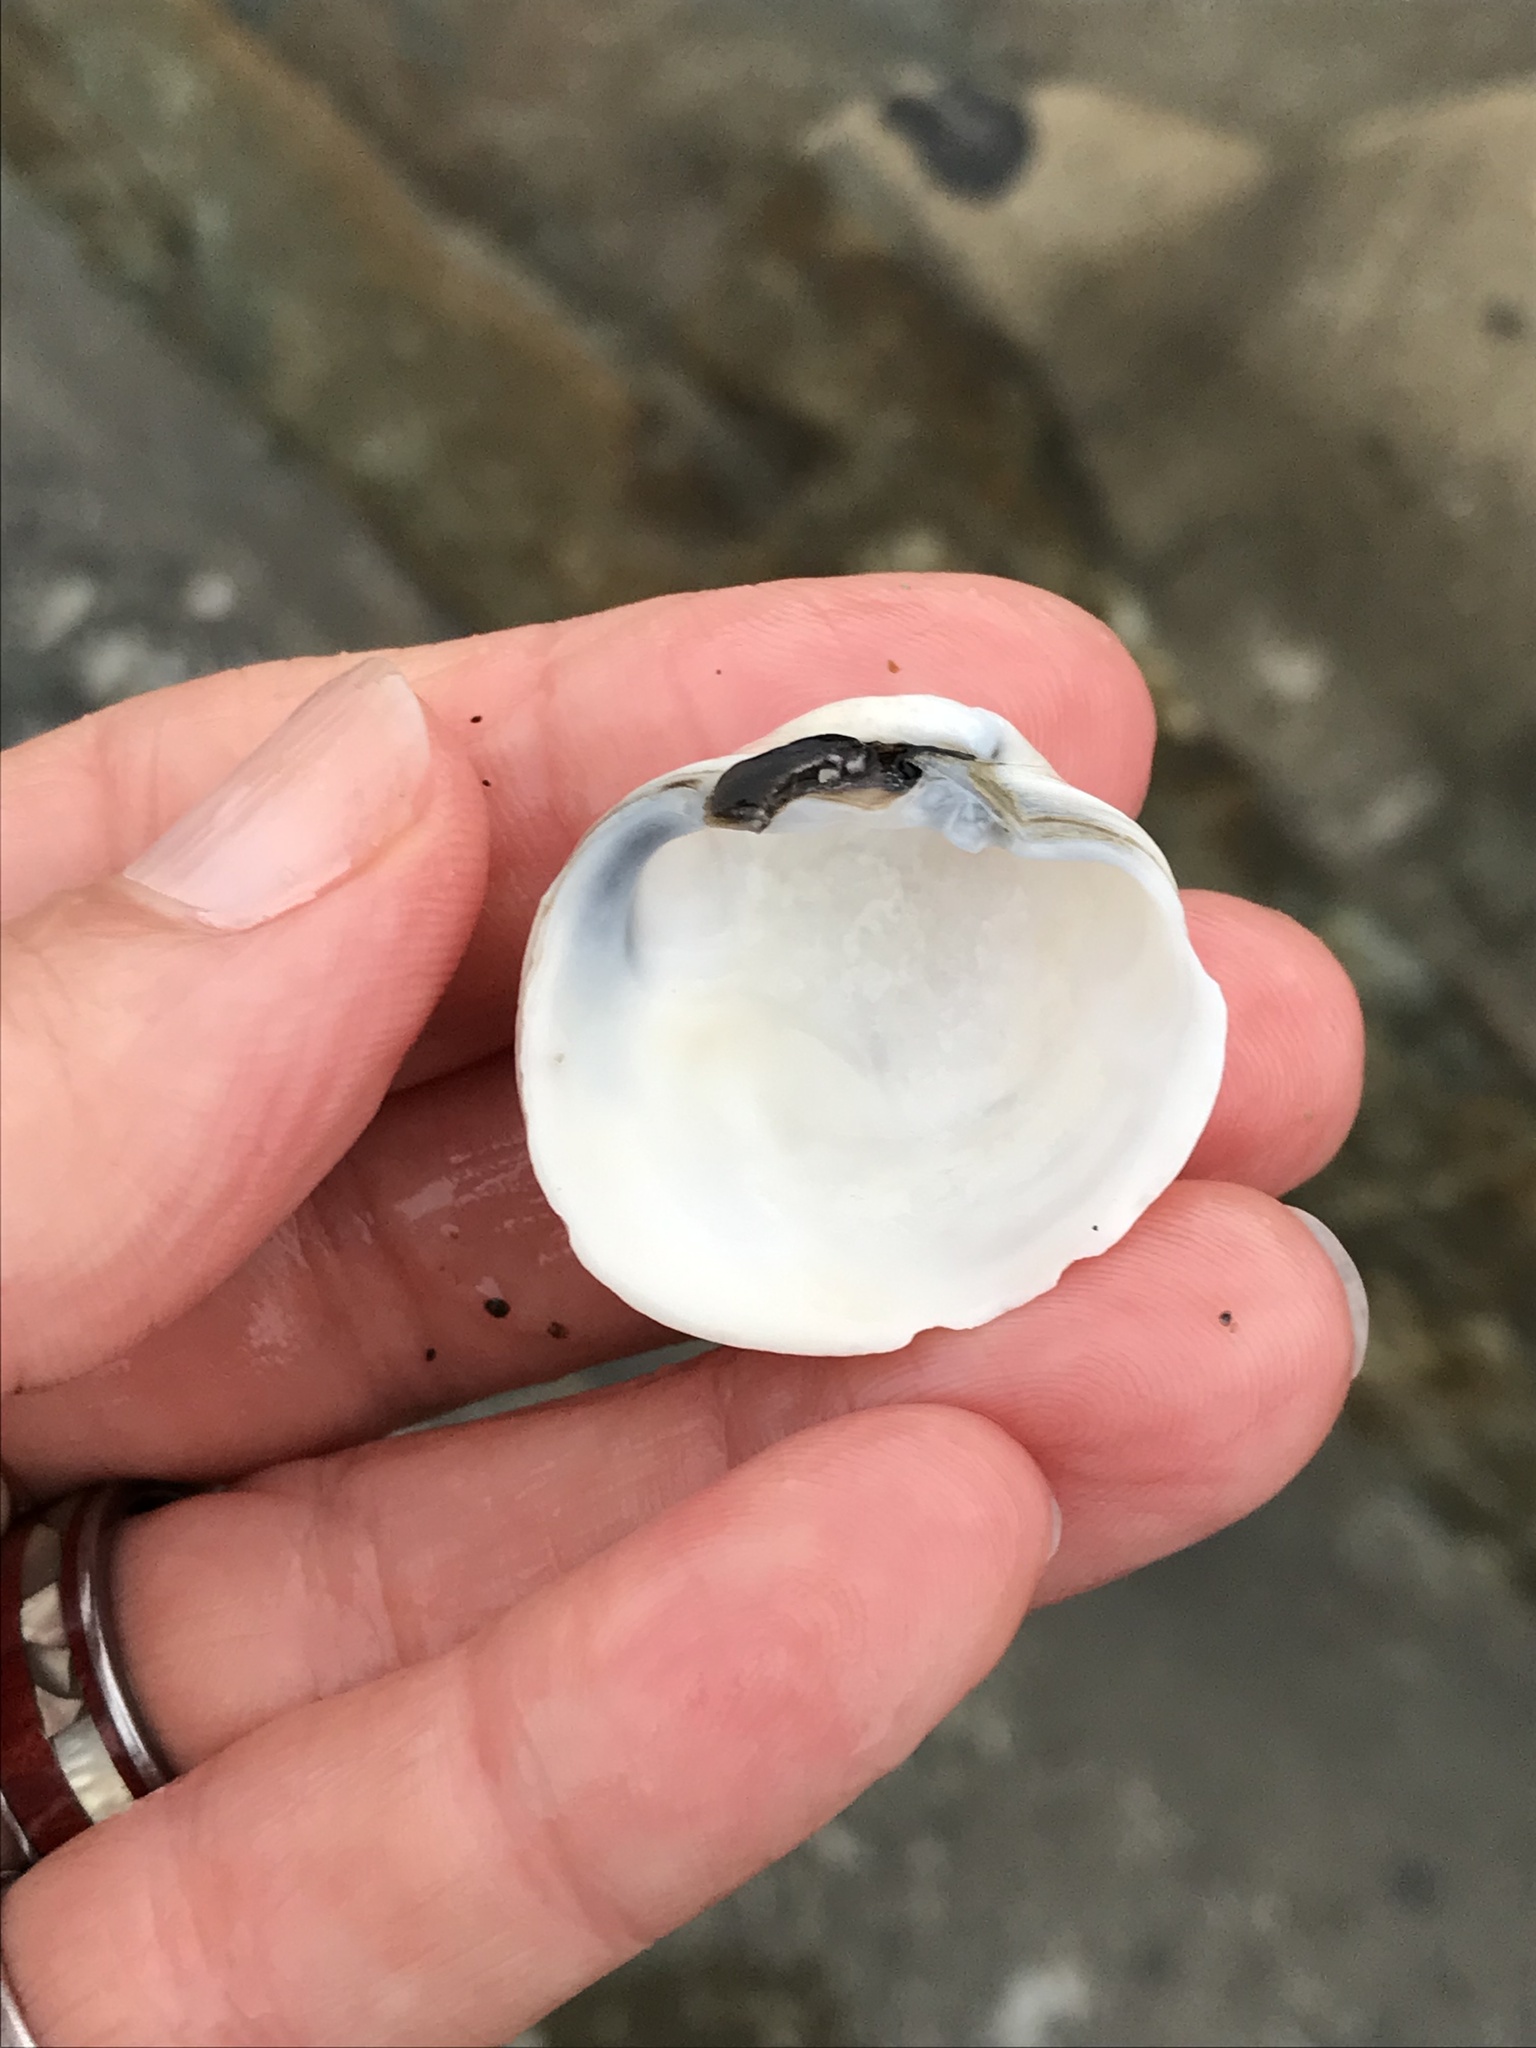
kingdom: Animalia
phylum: Mollusca
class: Bivalvia
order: Venerida
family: Veneridae
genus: Petricola
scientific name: Petricola carditoides
